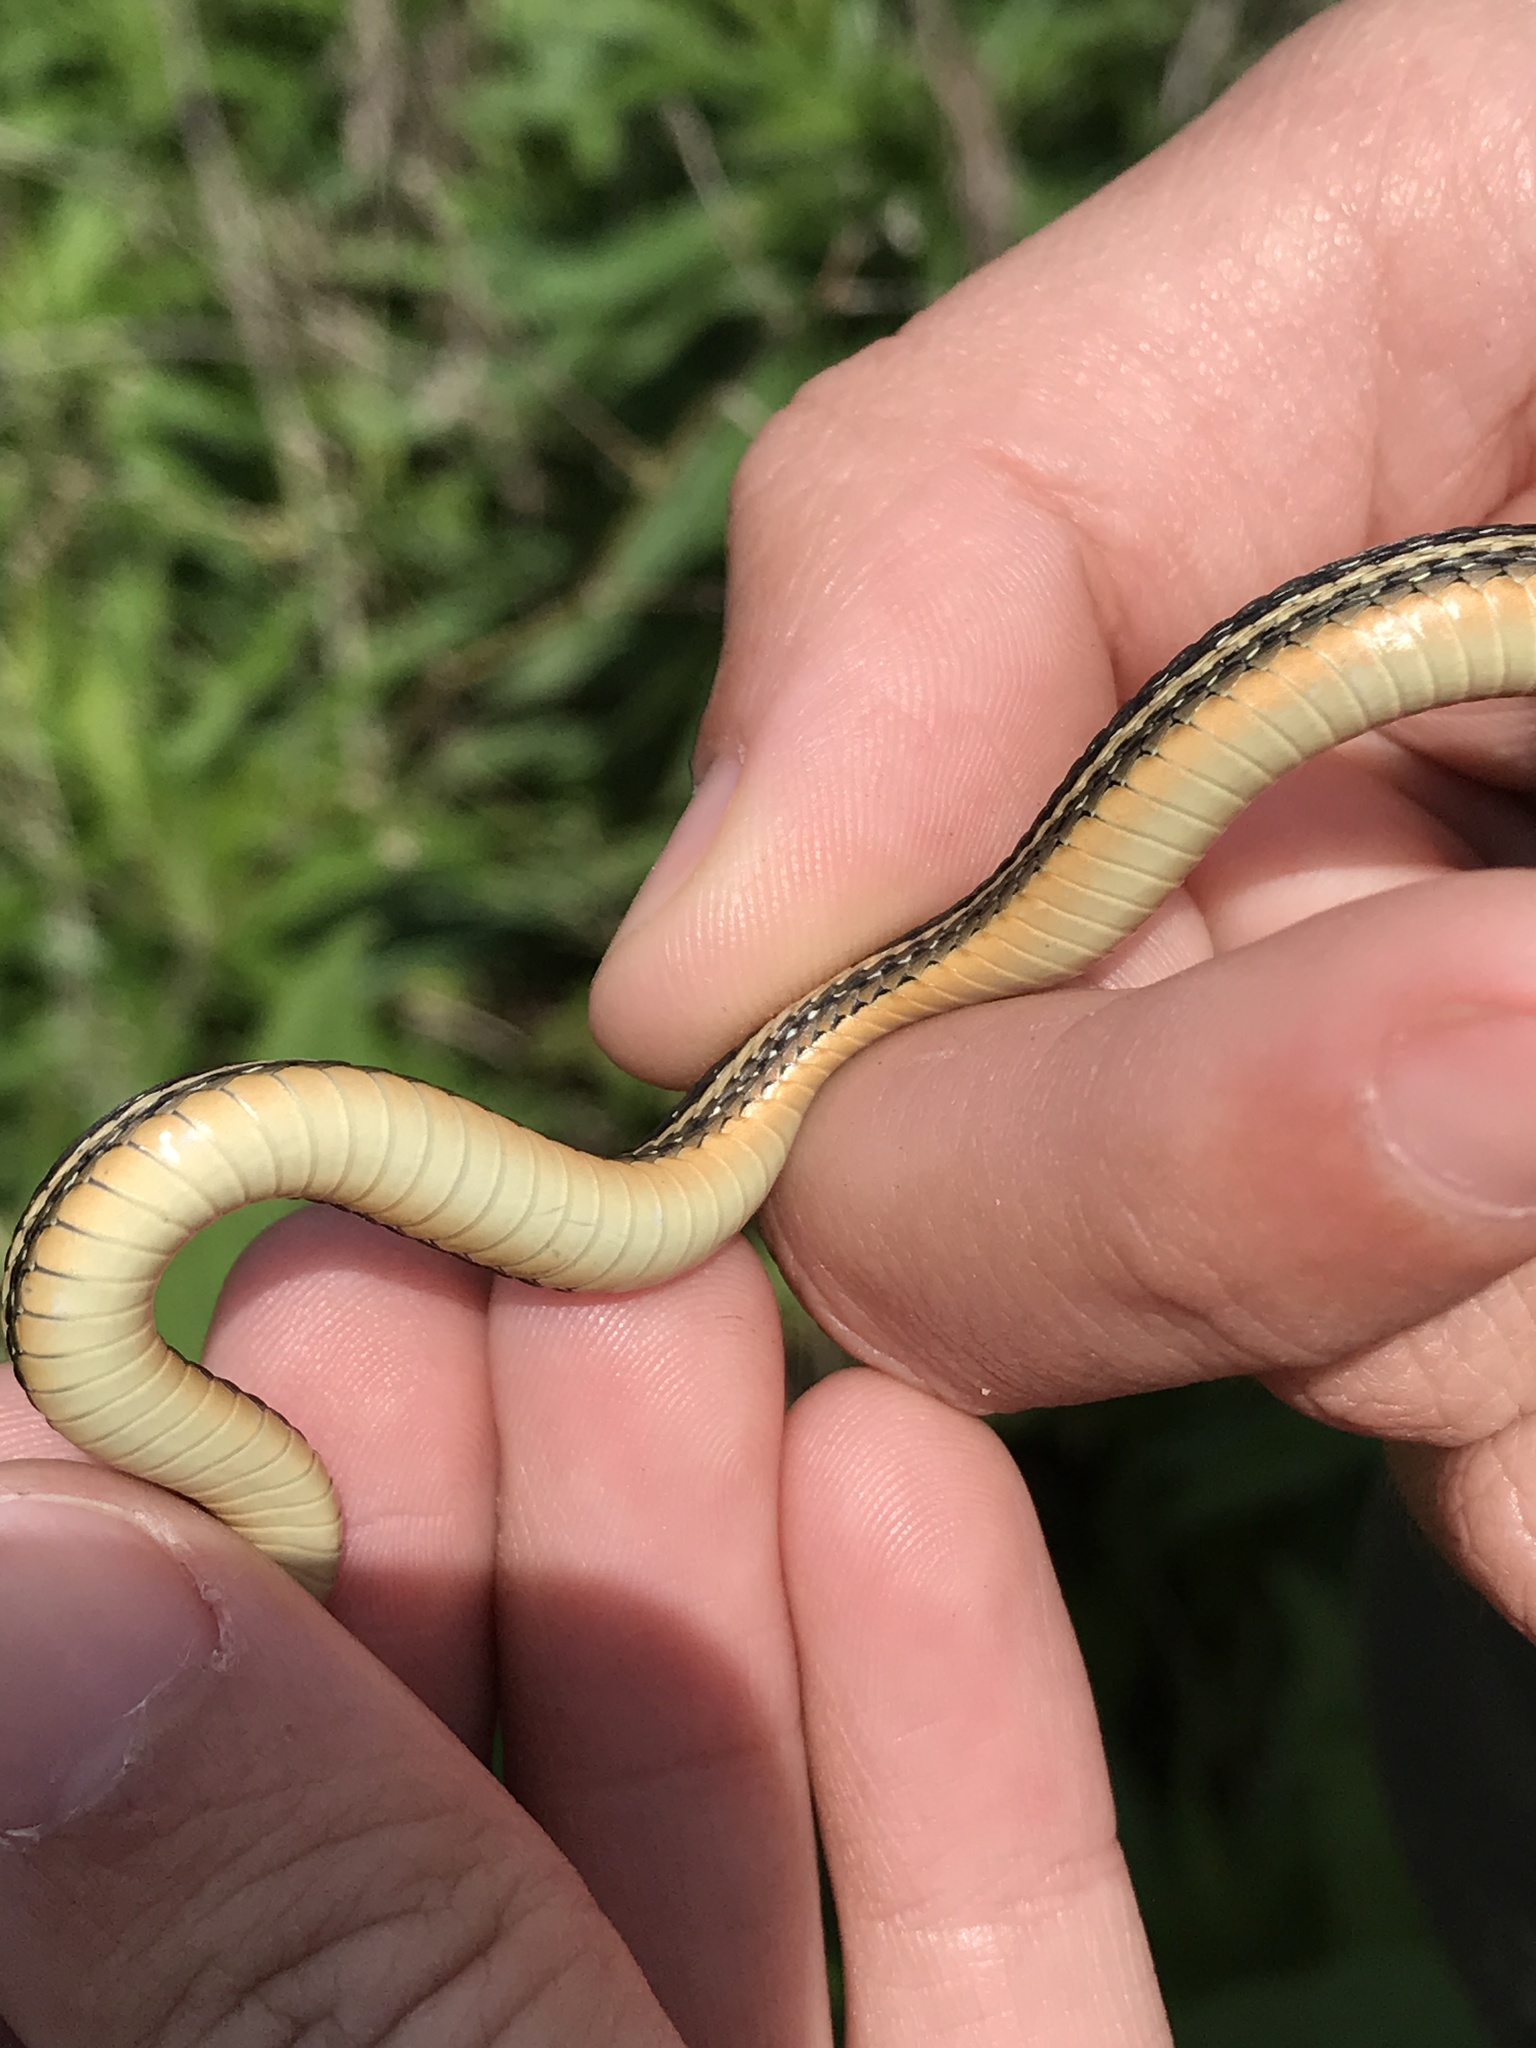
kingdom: Animalia
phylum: Chordata
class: Squamata
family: Colubridae
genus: Thamnophis
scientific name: Thamnophis proximus
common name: Western ribbon snake
